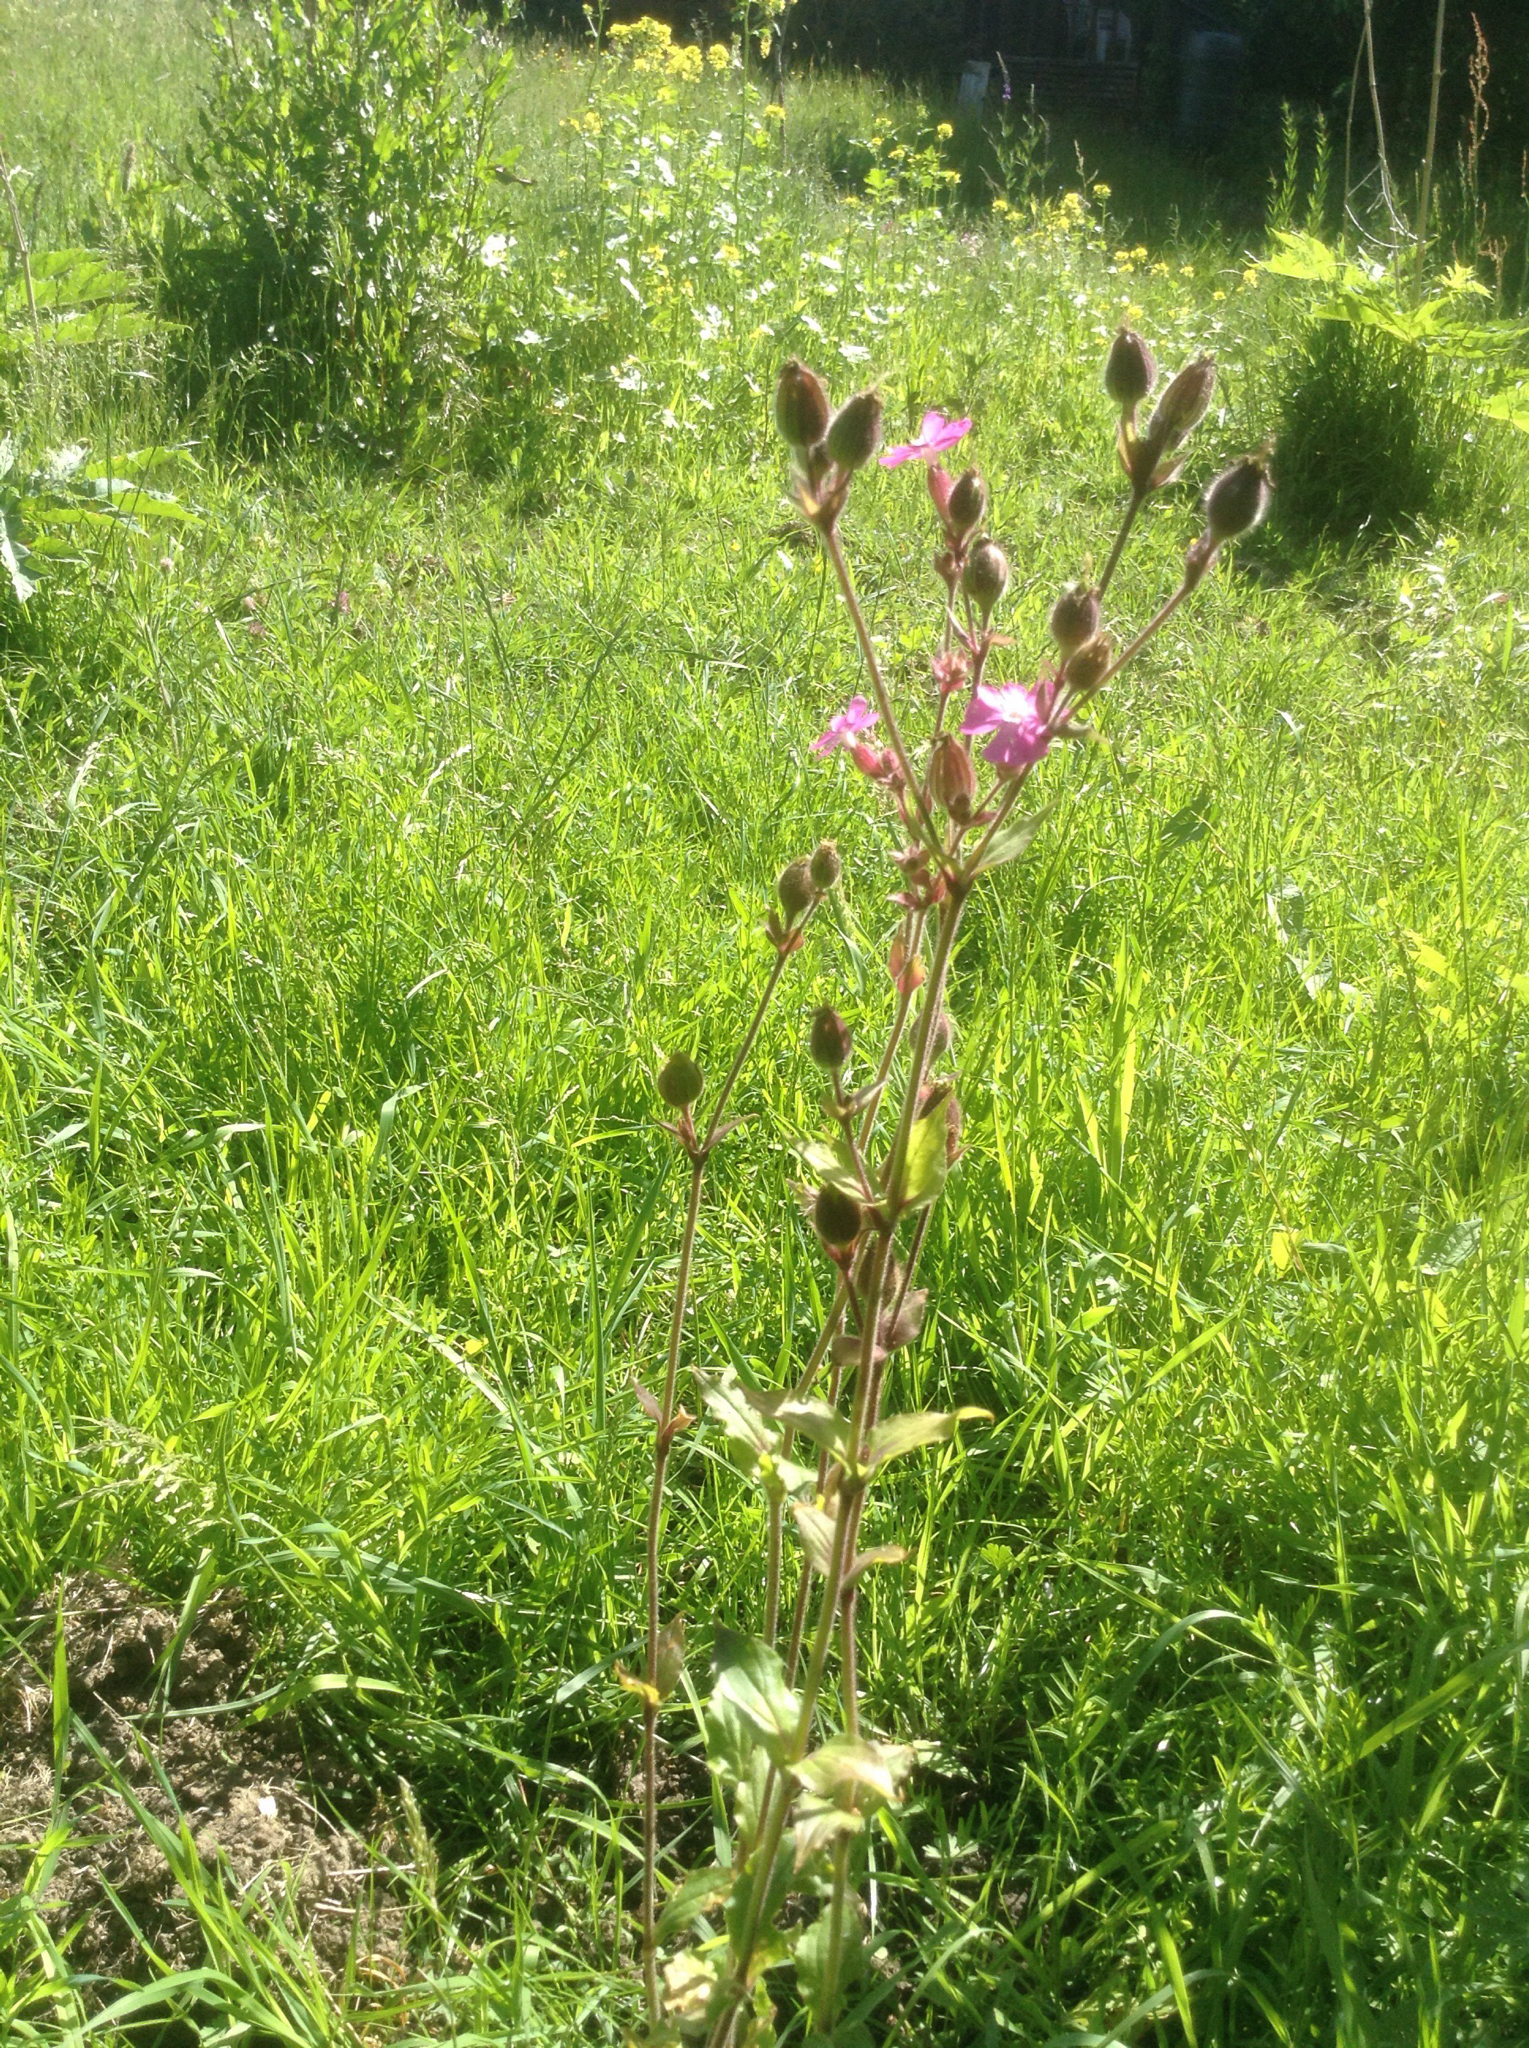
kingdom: Plantae
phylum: Tracheophyta
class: Magnoliopsida
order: Caryophyllales
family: Caryophyllaceae
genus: Silene
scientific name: Silene dioica
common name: Red campion
